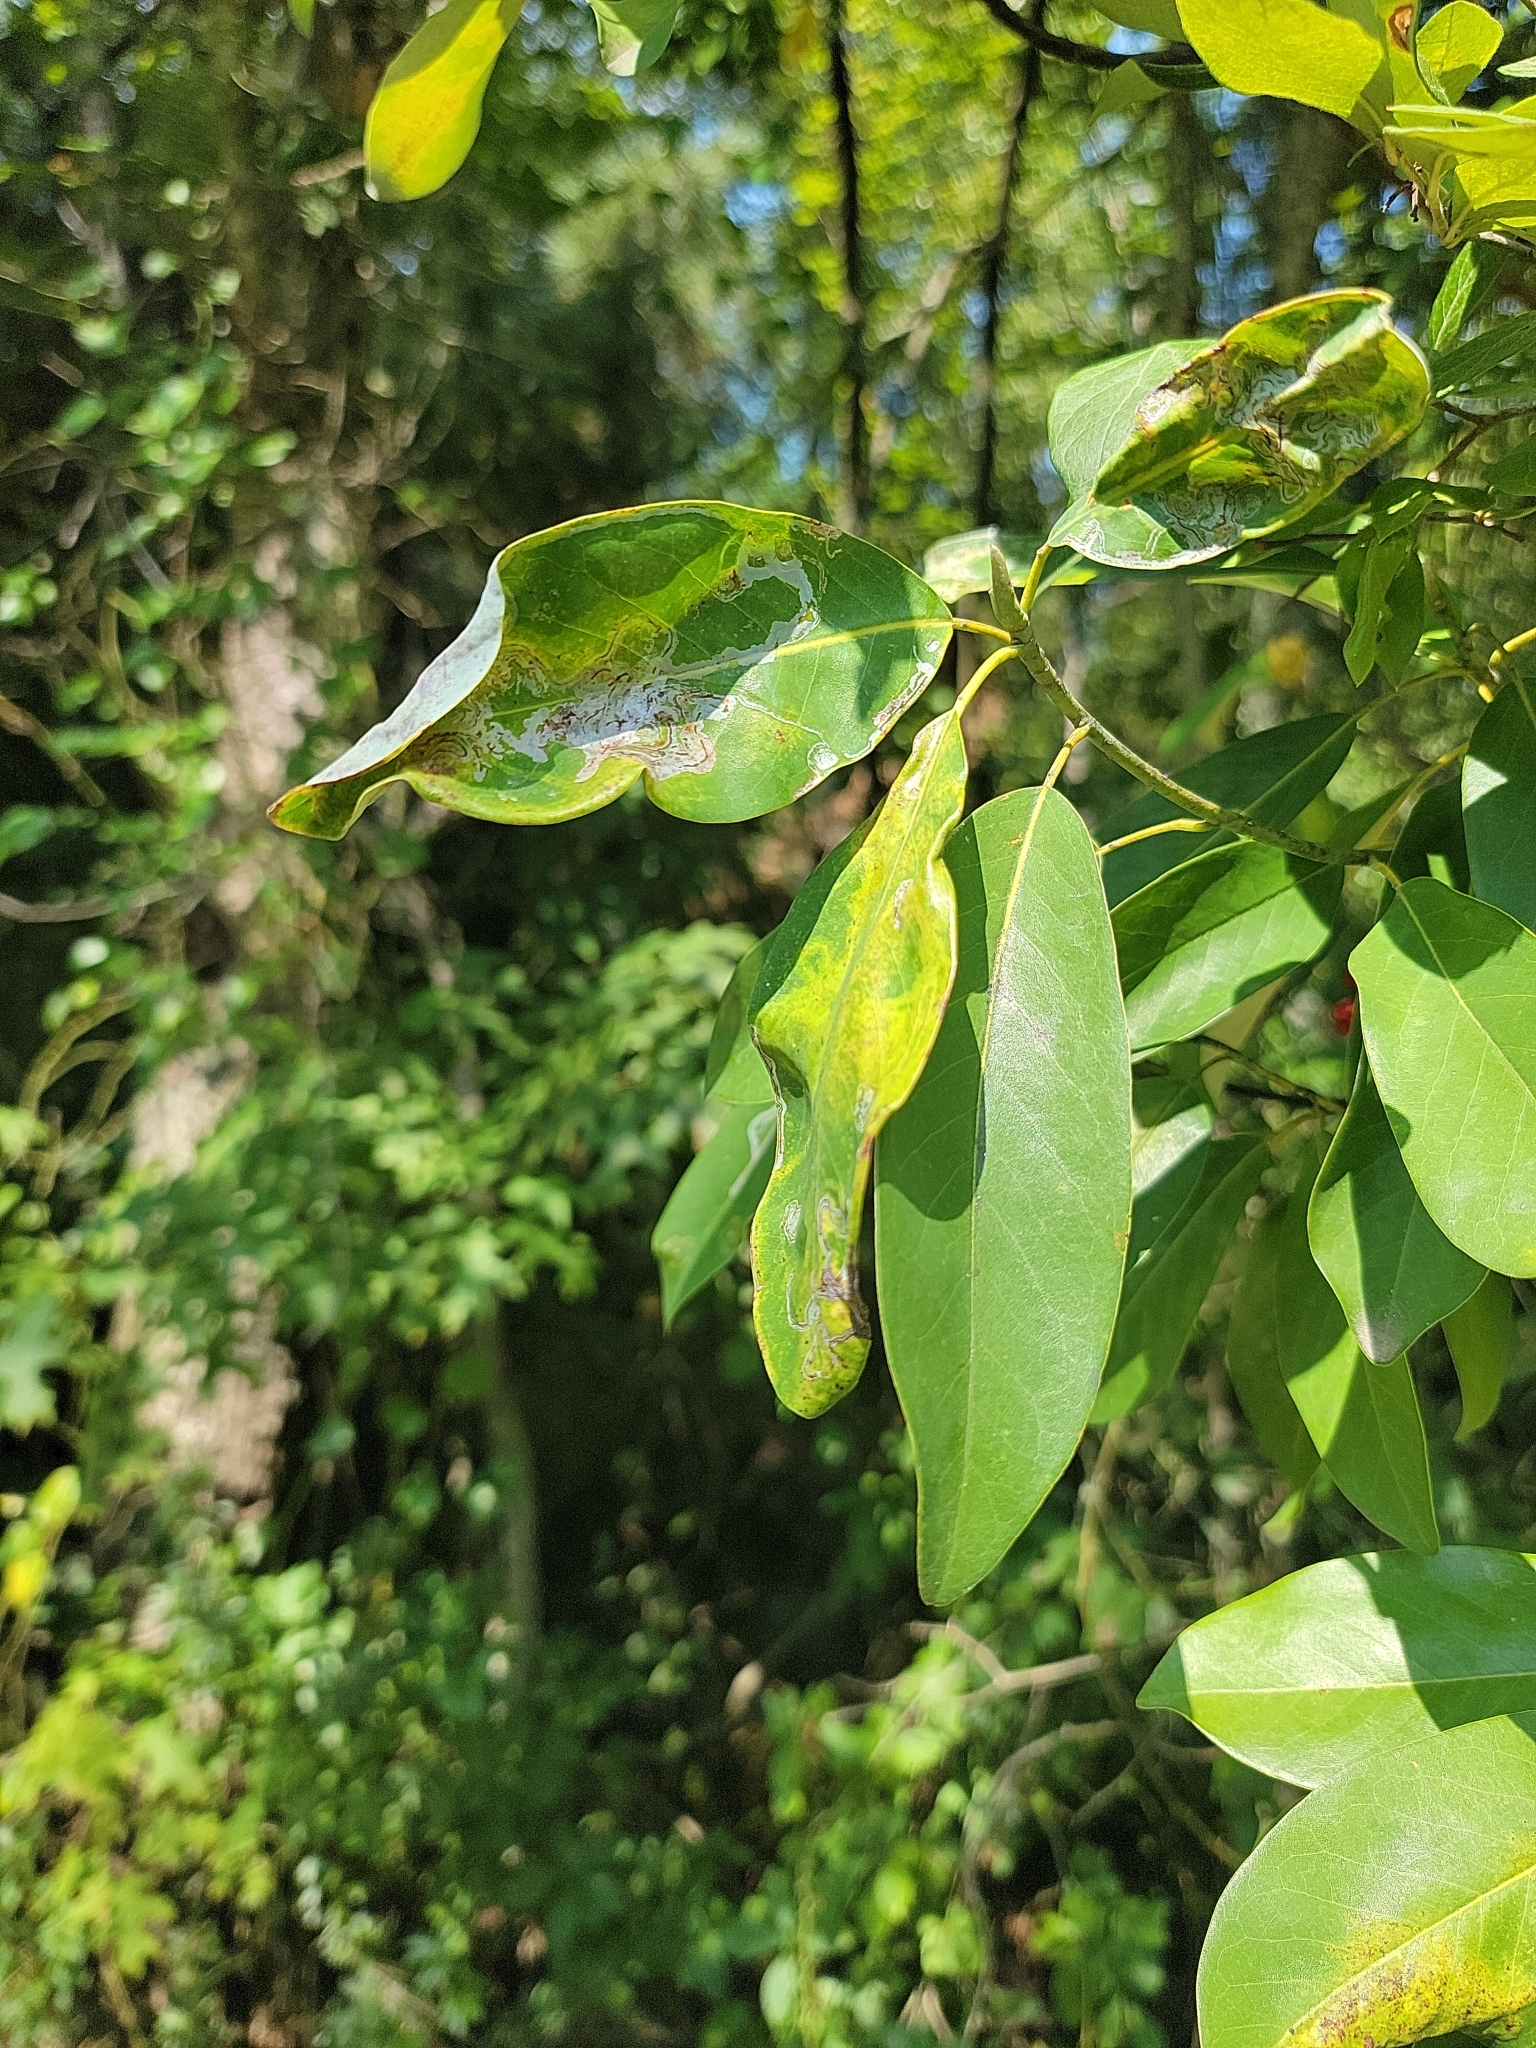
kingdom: Plantae
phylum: Tracheophyta
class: Magnoliopsida
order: Magnoliales
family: Magnoliaceae
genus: Magnolia
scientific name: Magnolia virginiana
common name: Swamp bay
